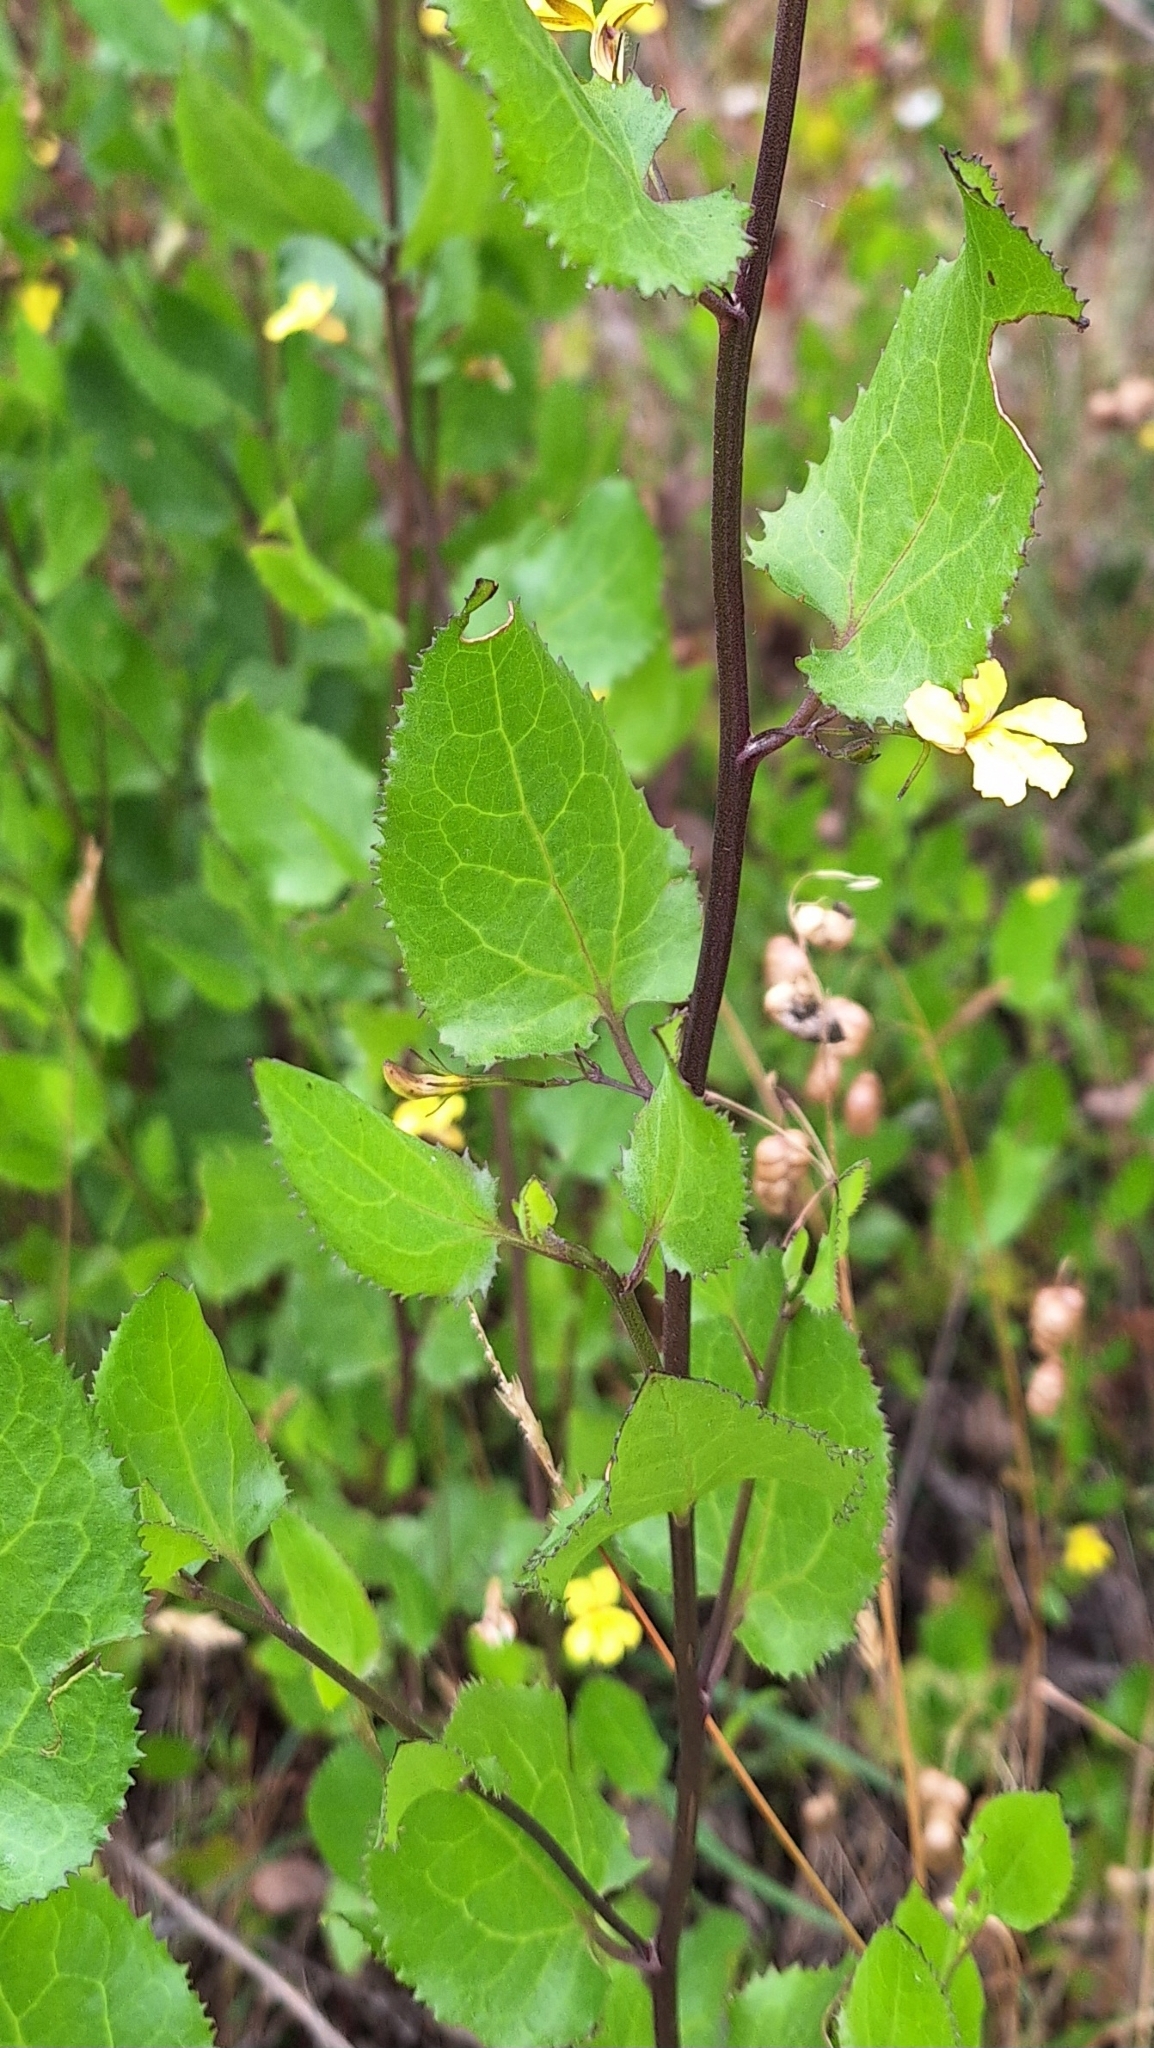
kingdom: Plantae
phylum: Tracheophyta
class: Magnoliopsida
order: Asterales
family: Goodeniaceae
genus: Goodenia
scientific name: Goodenia ovata
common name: Hop goodenia
